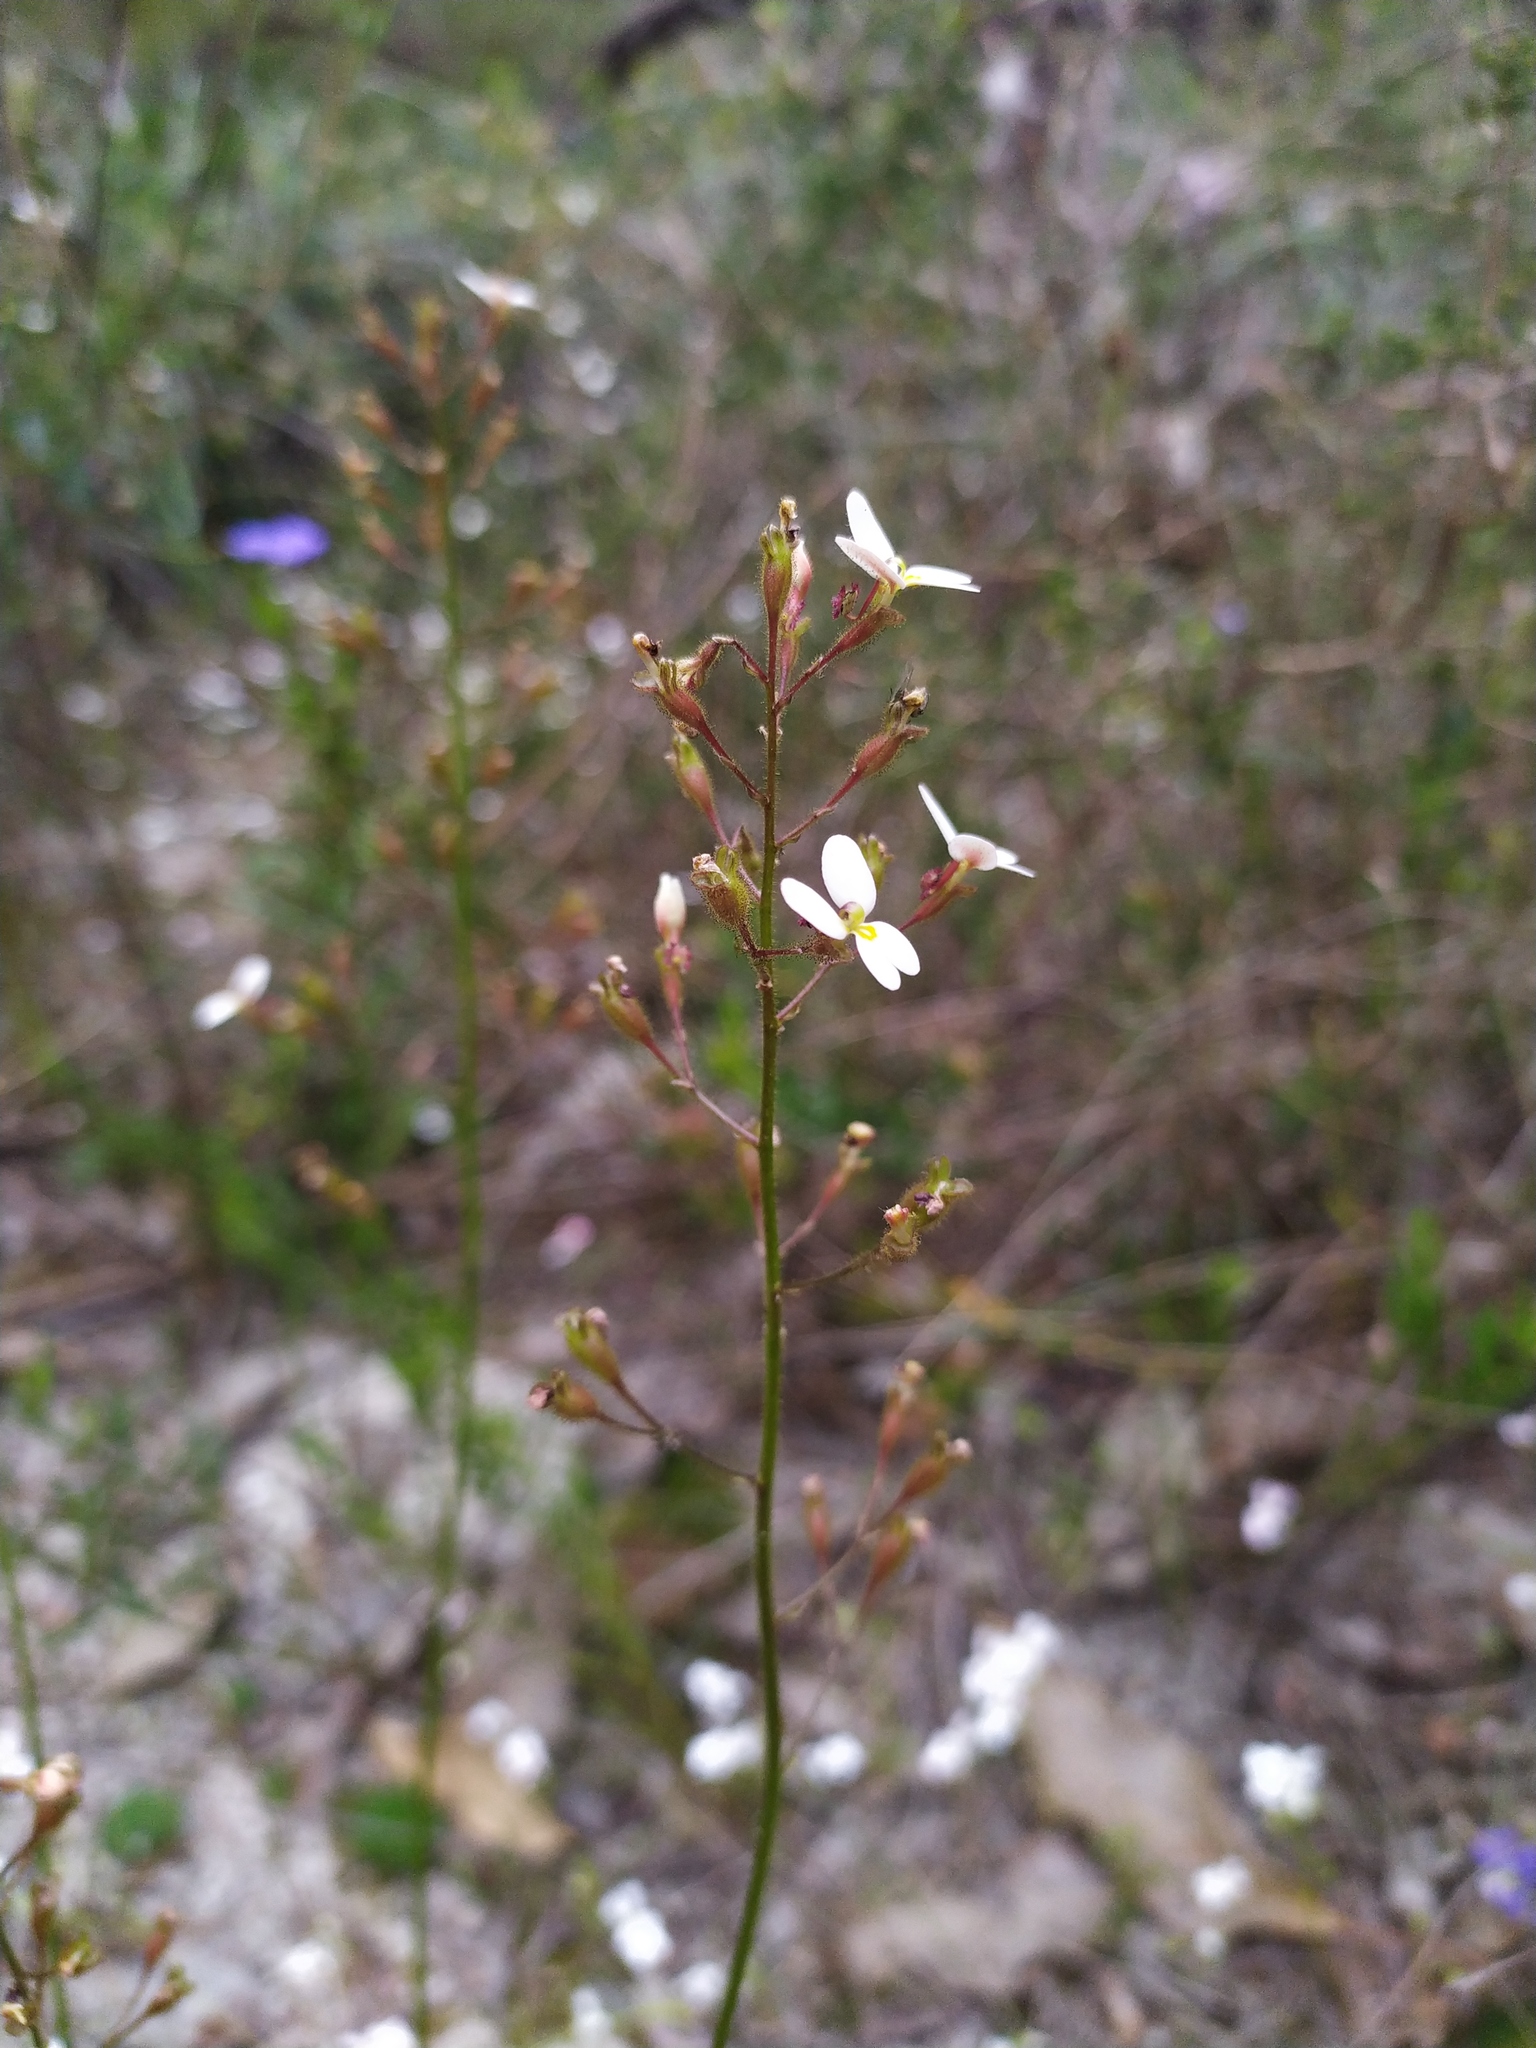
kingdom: Plantae
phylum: Tracheophyta
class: Magnoliopsida
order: Asterales
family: Stylidiaceae
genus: Stylidium
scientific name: Stylidium piliferum
